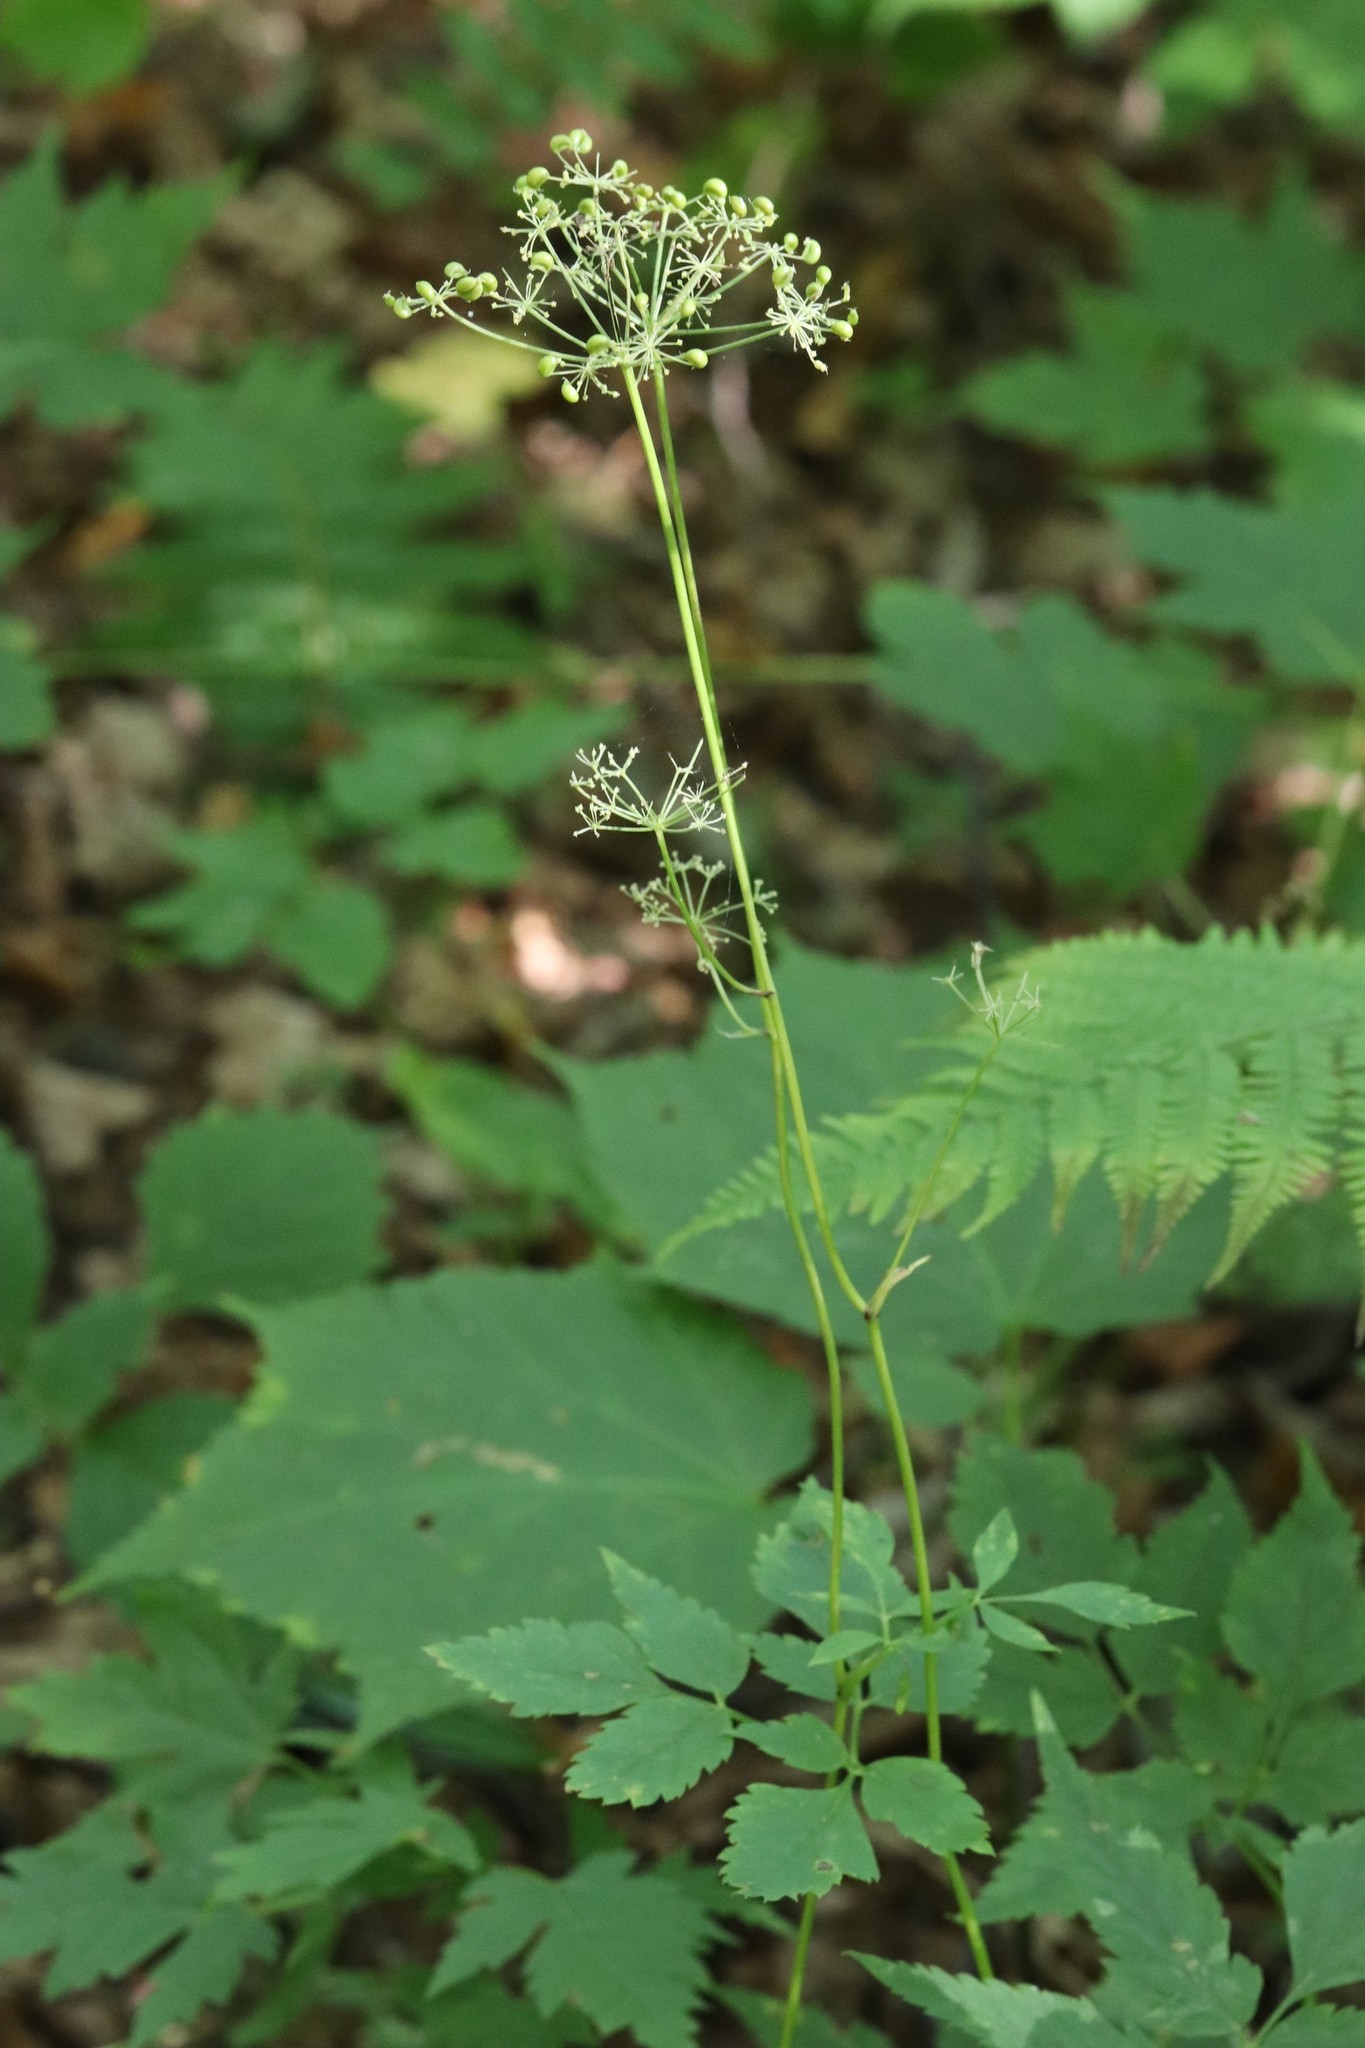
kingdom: Plantae
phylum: Tracheophyta
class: Magnoliopsida
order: Apiales
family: Apiaceae
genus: Spuriopimpinella
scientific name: Spuriopimpinella calycina
